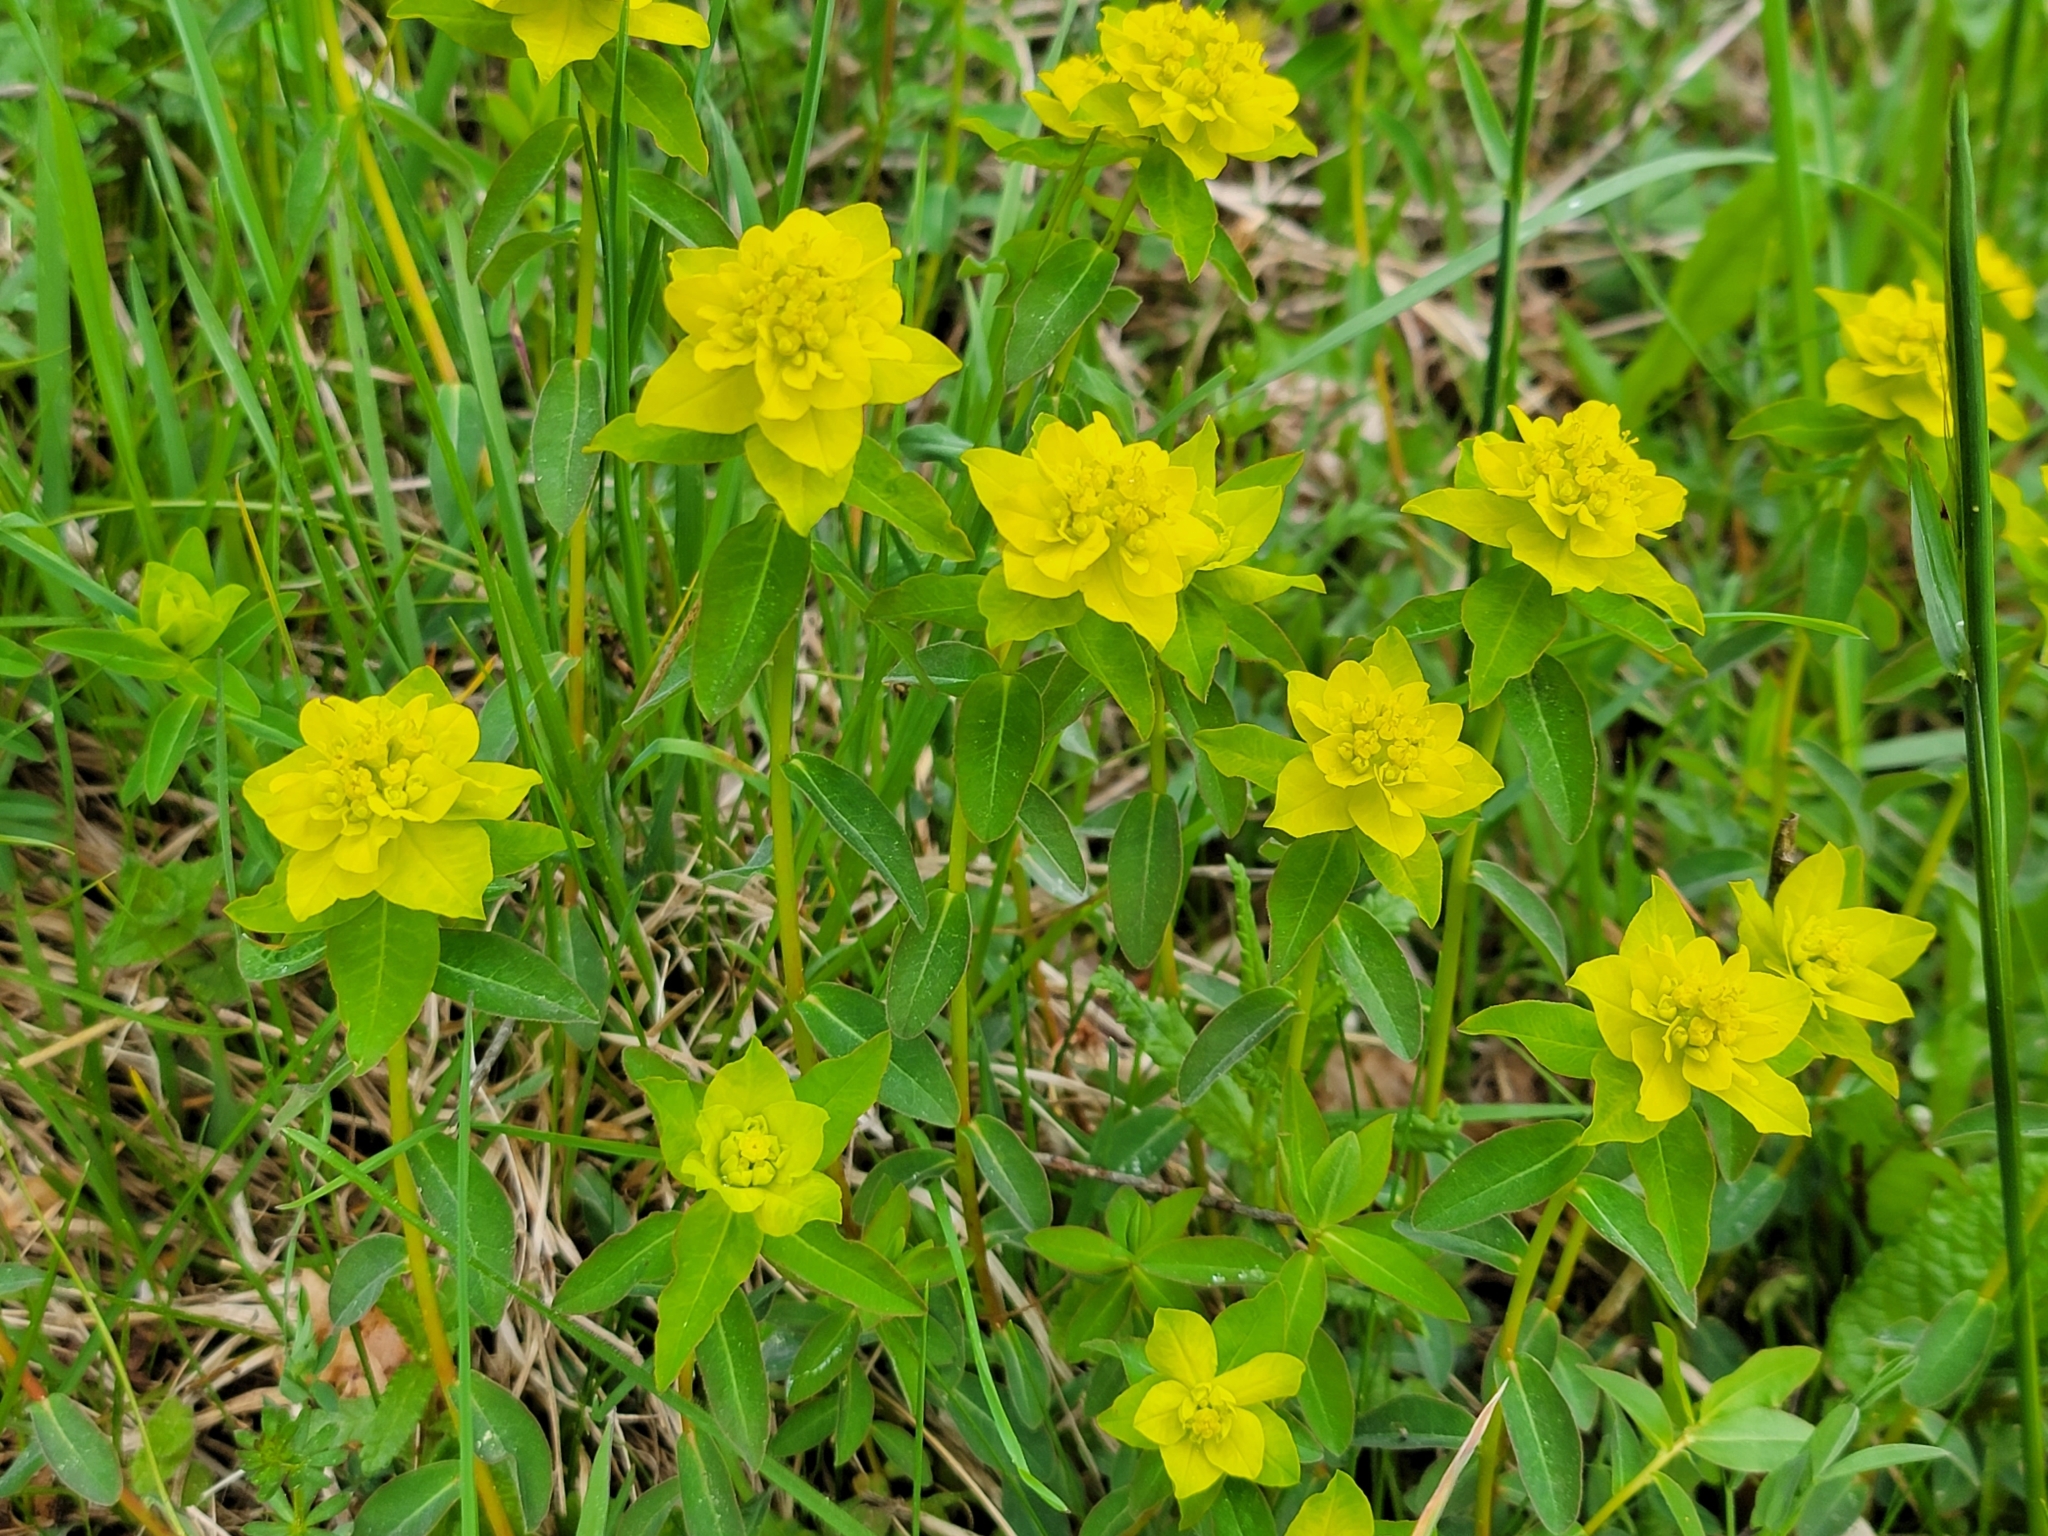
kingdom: Plantae
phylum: Tracheophyta
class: Magnoliopsida
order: Malpighiales
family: Euphorbiaceae
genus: Euphorbia
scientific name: Euphorbia verrucosa
